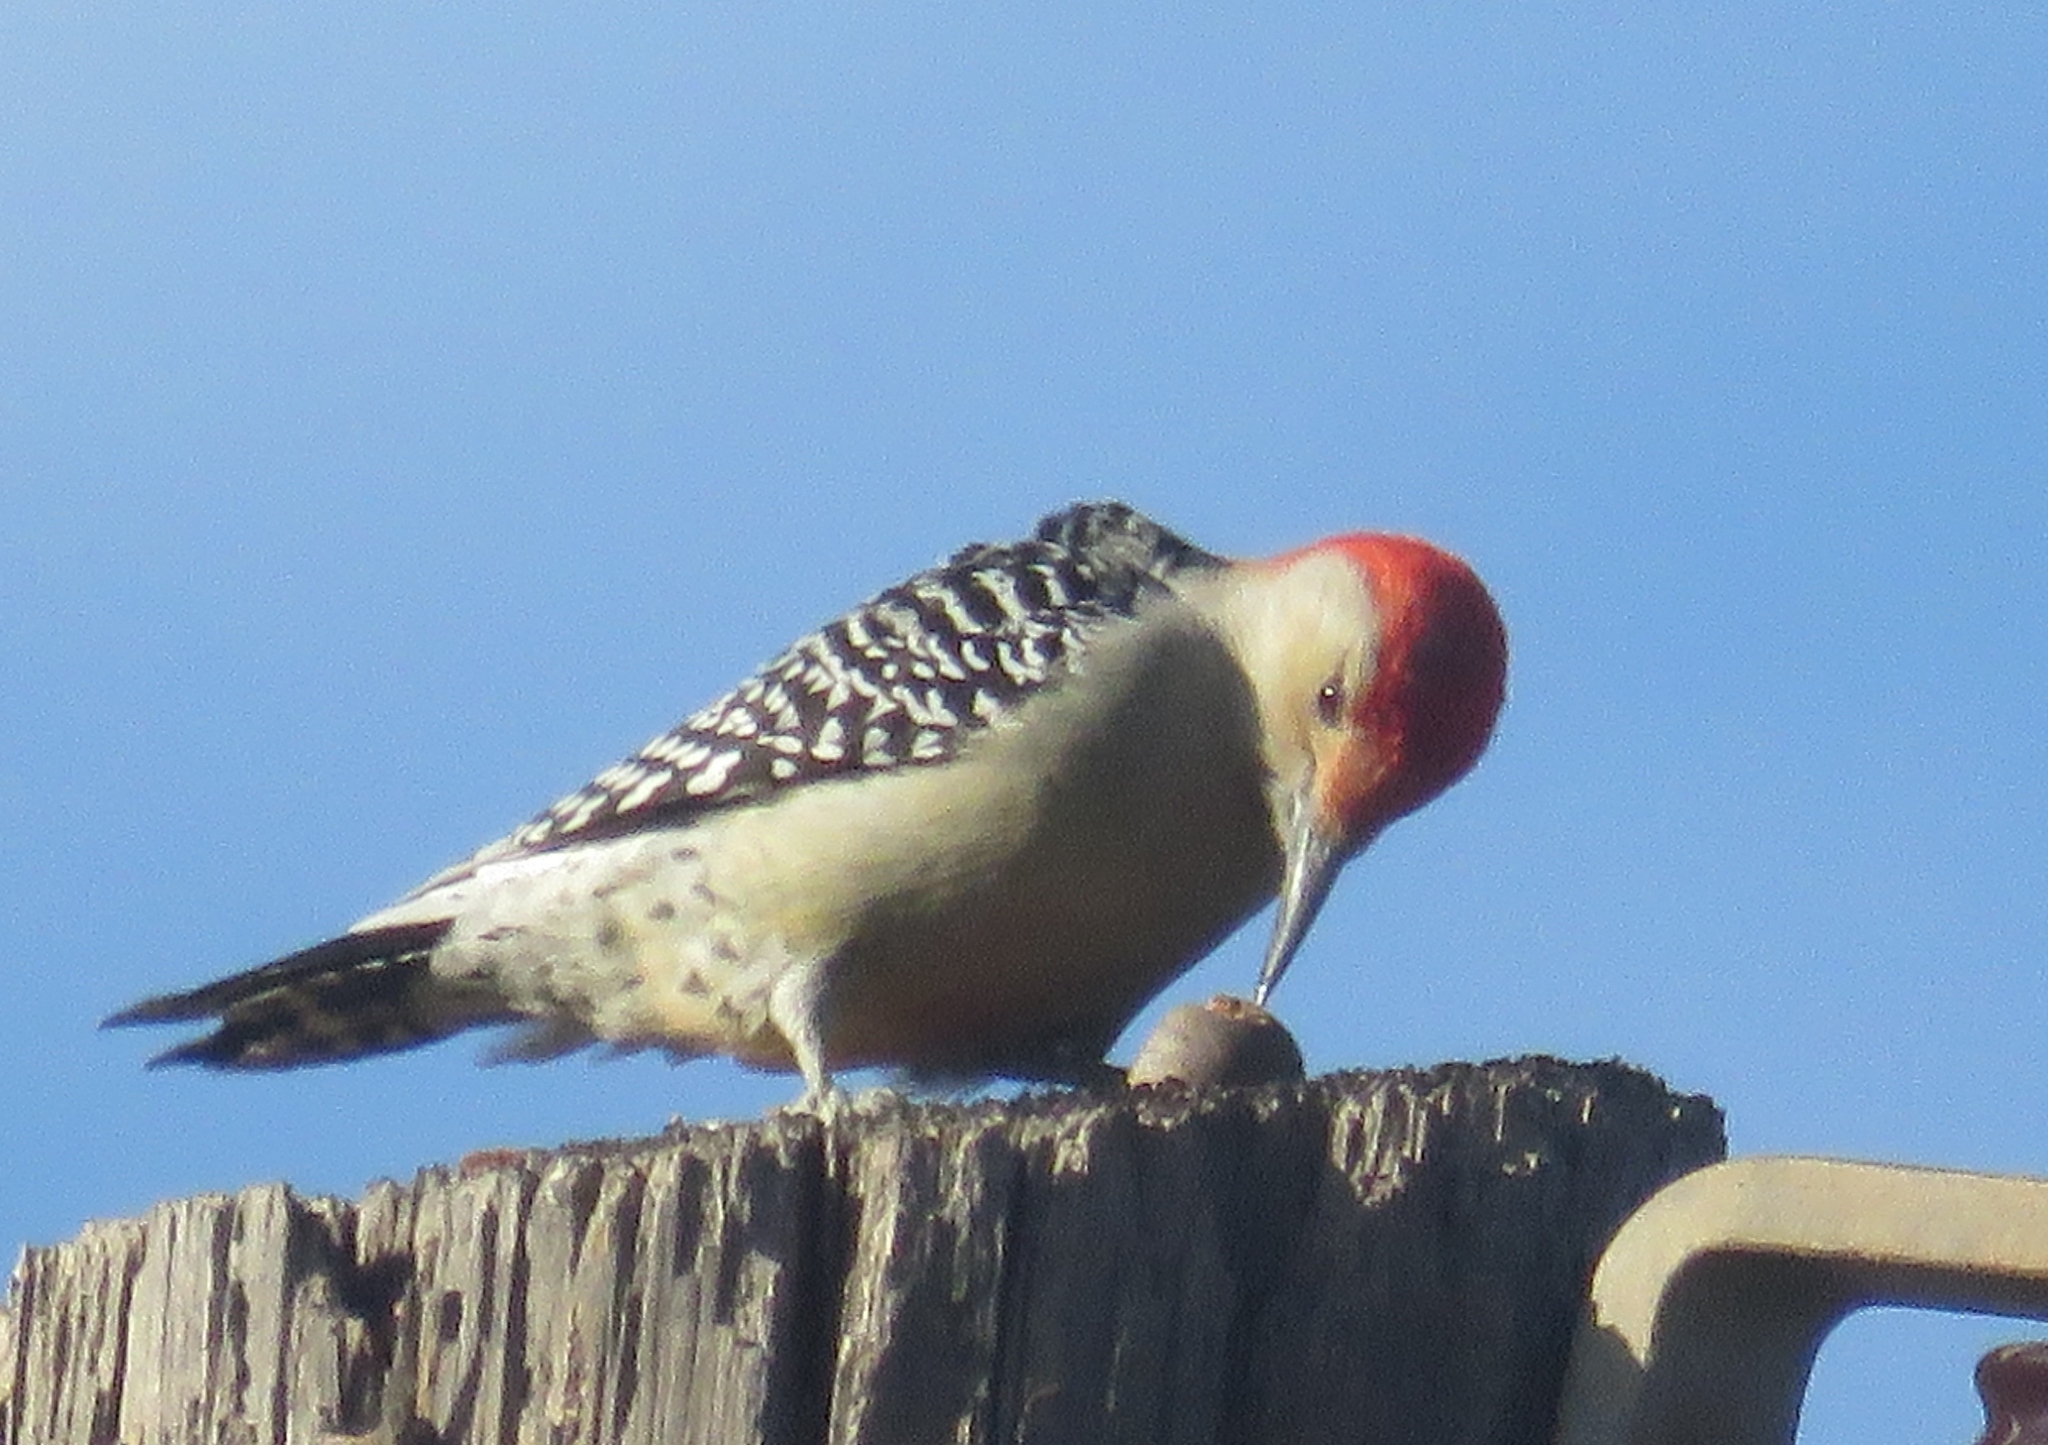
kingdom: Animalia
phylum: Chordata
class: Aves
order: Piciformes
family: Picidae
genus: Melanerpes
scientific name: Melanerpes carolinus
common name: Red-bellied woodpecker
